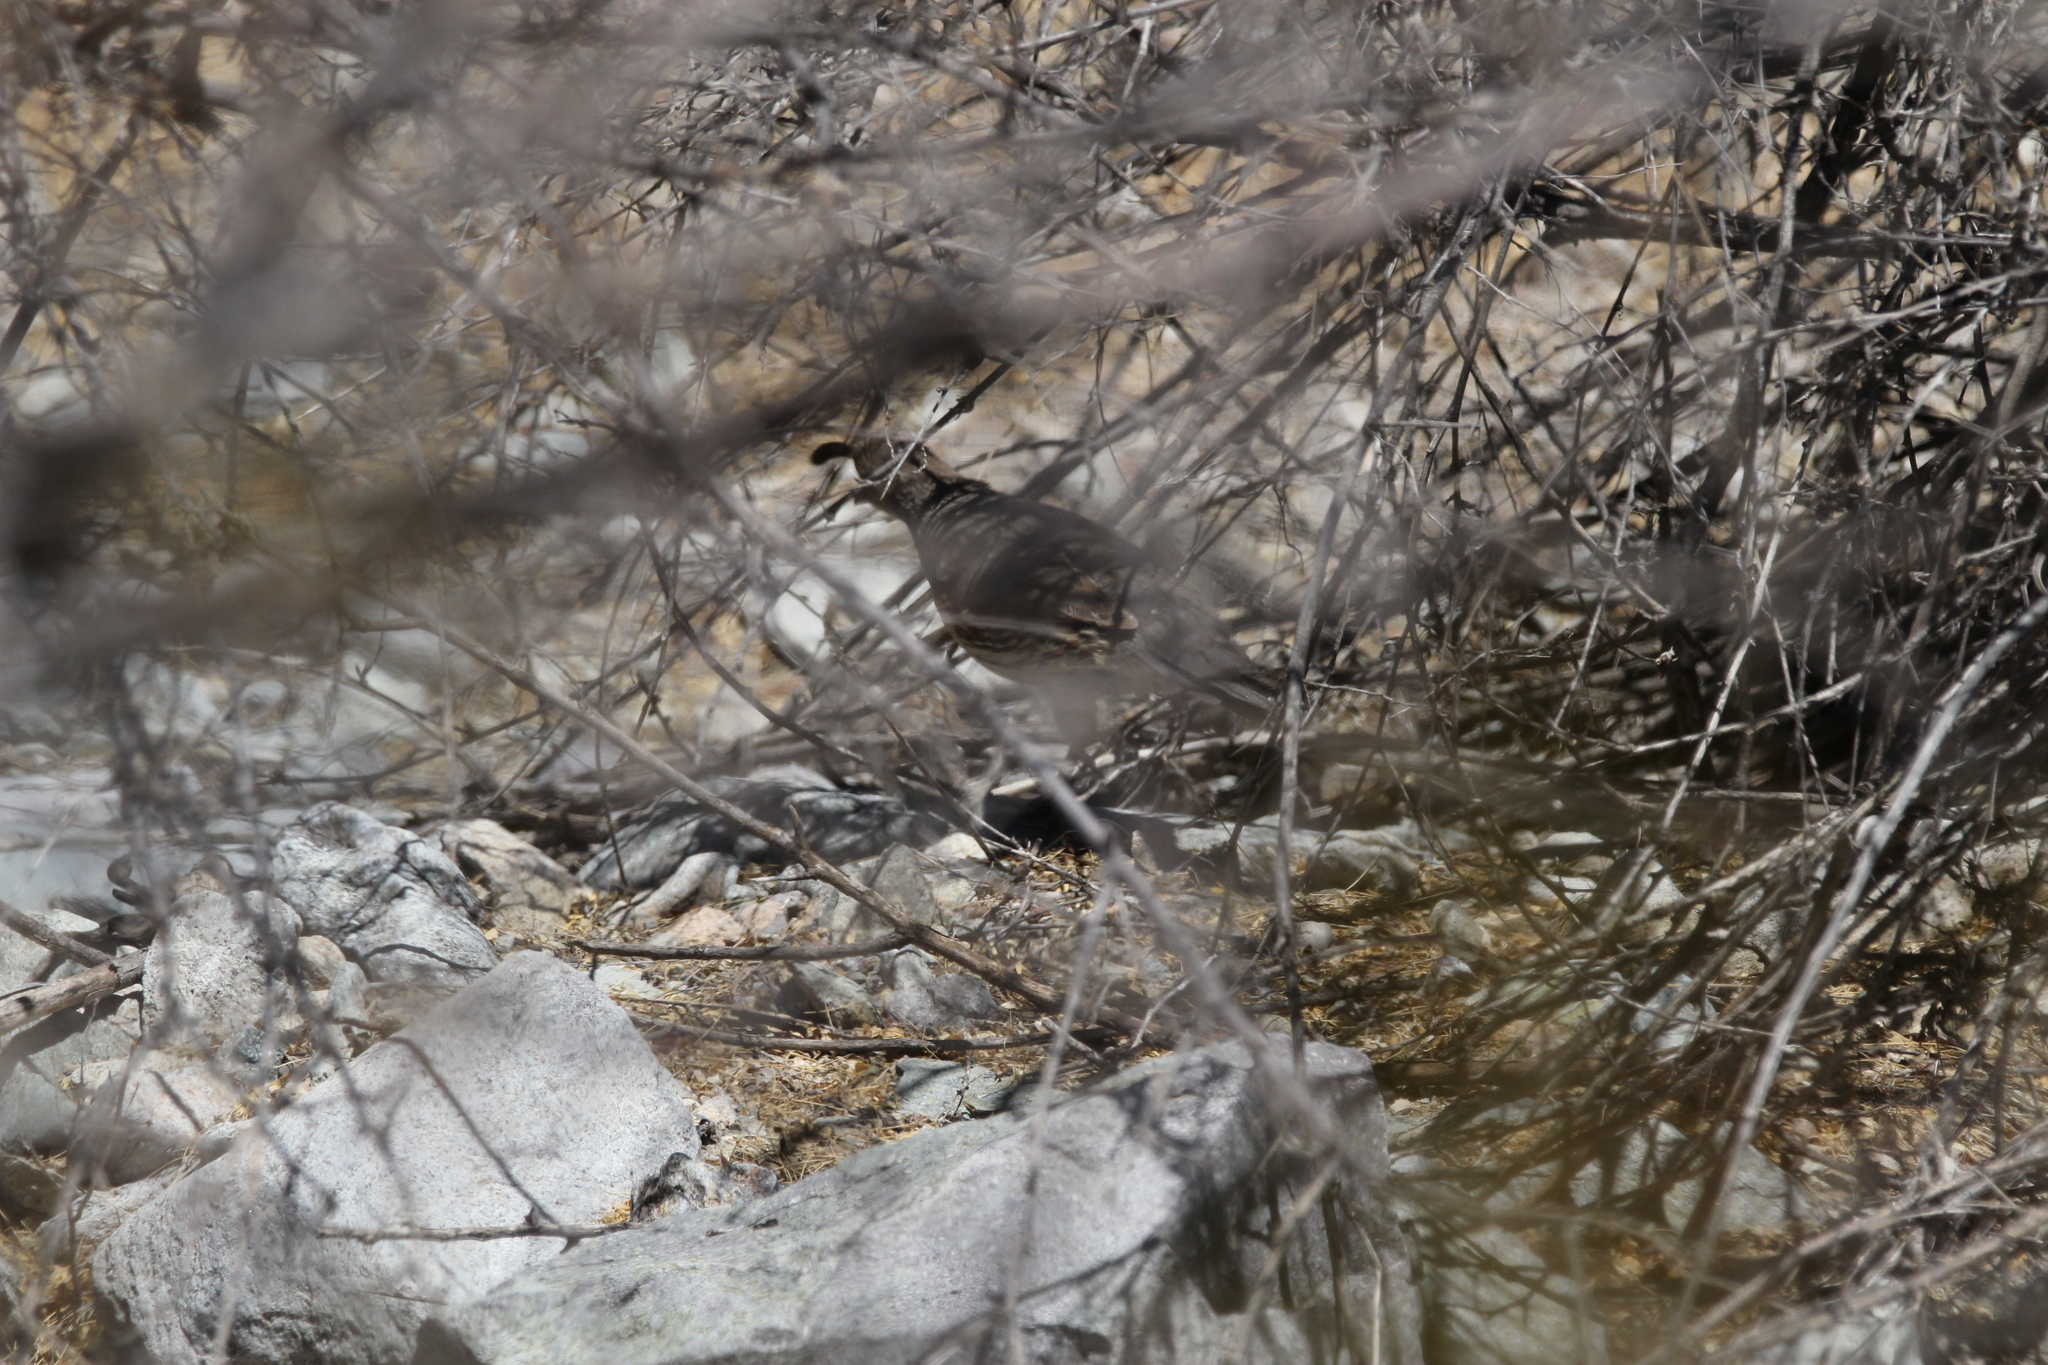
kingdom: Animalia
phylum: Chordata
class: Aves
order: Galliformes
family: Odontophoridae
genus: Callipepla
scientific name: Callipepla gambelii
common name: Gambel's quail
